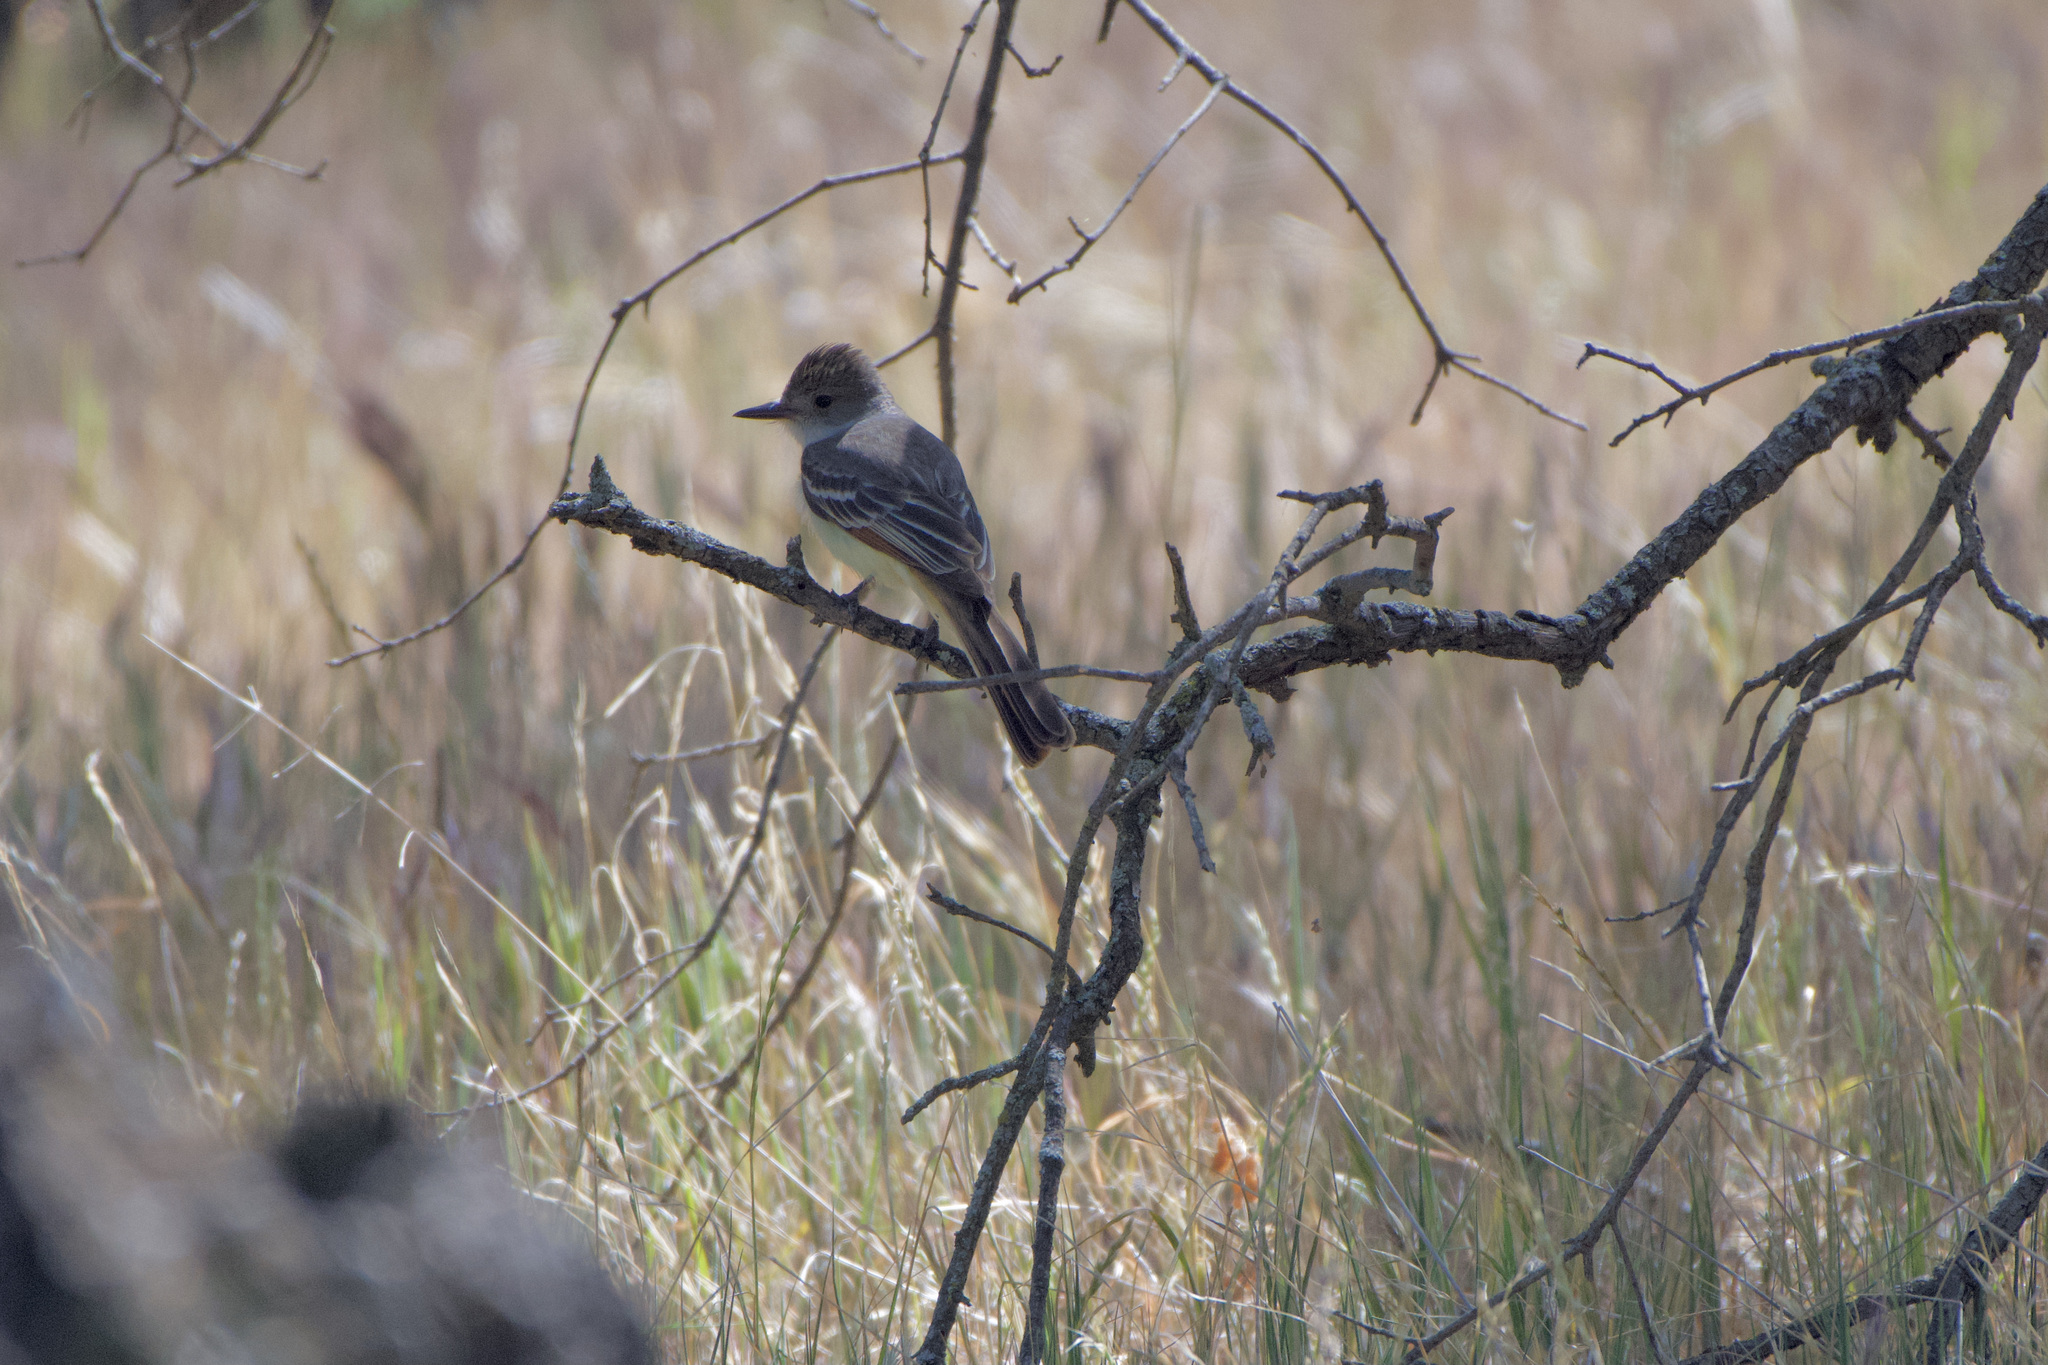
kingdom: Animalia
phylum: Chordata
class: Aves
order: Passeriformes
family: Tyrannidae
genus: Myiarchus
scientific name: Myiarchus cinerascens
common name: Ash-throated flycatcher
